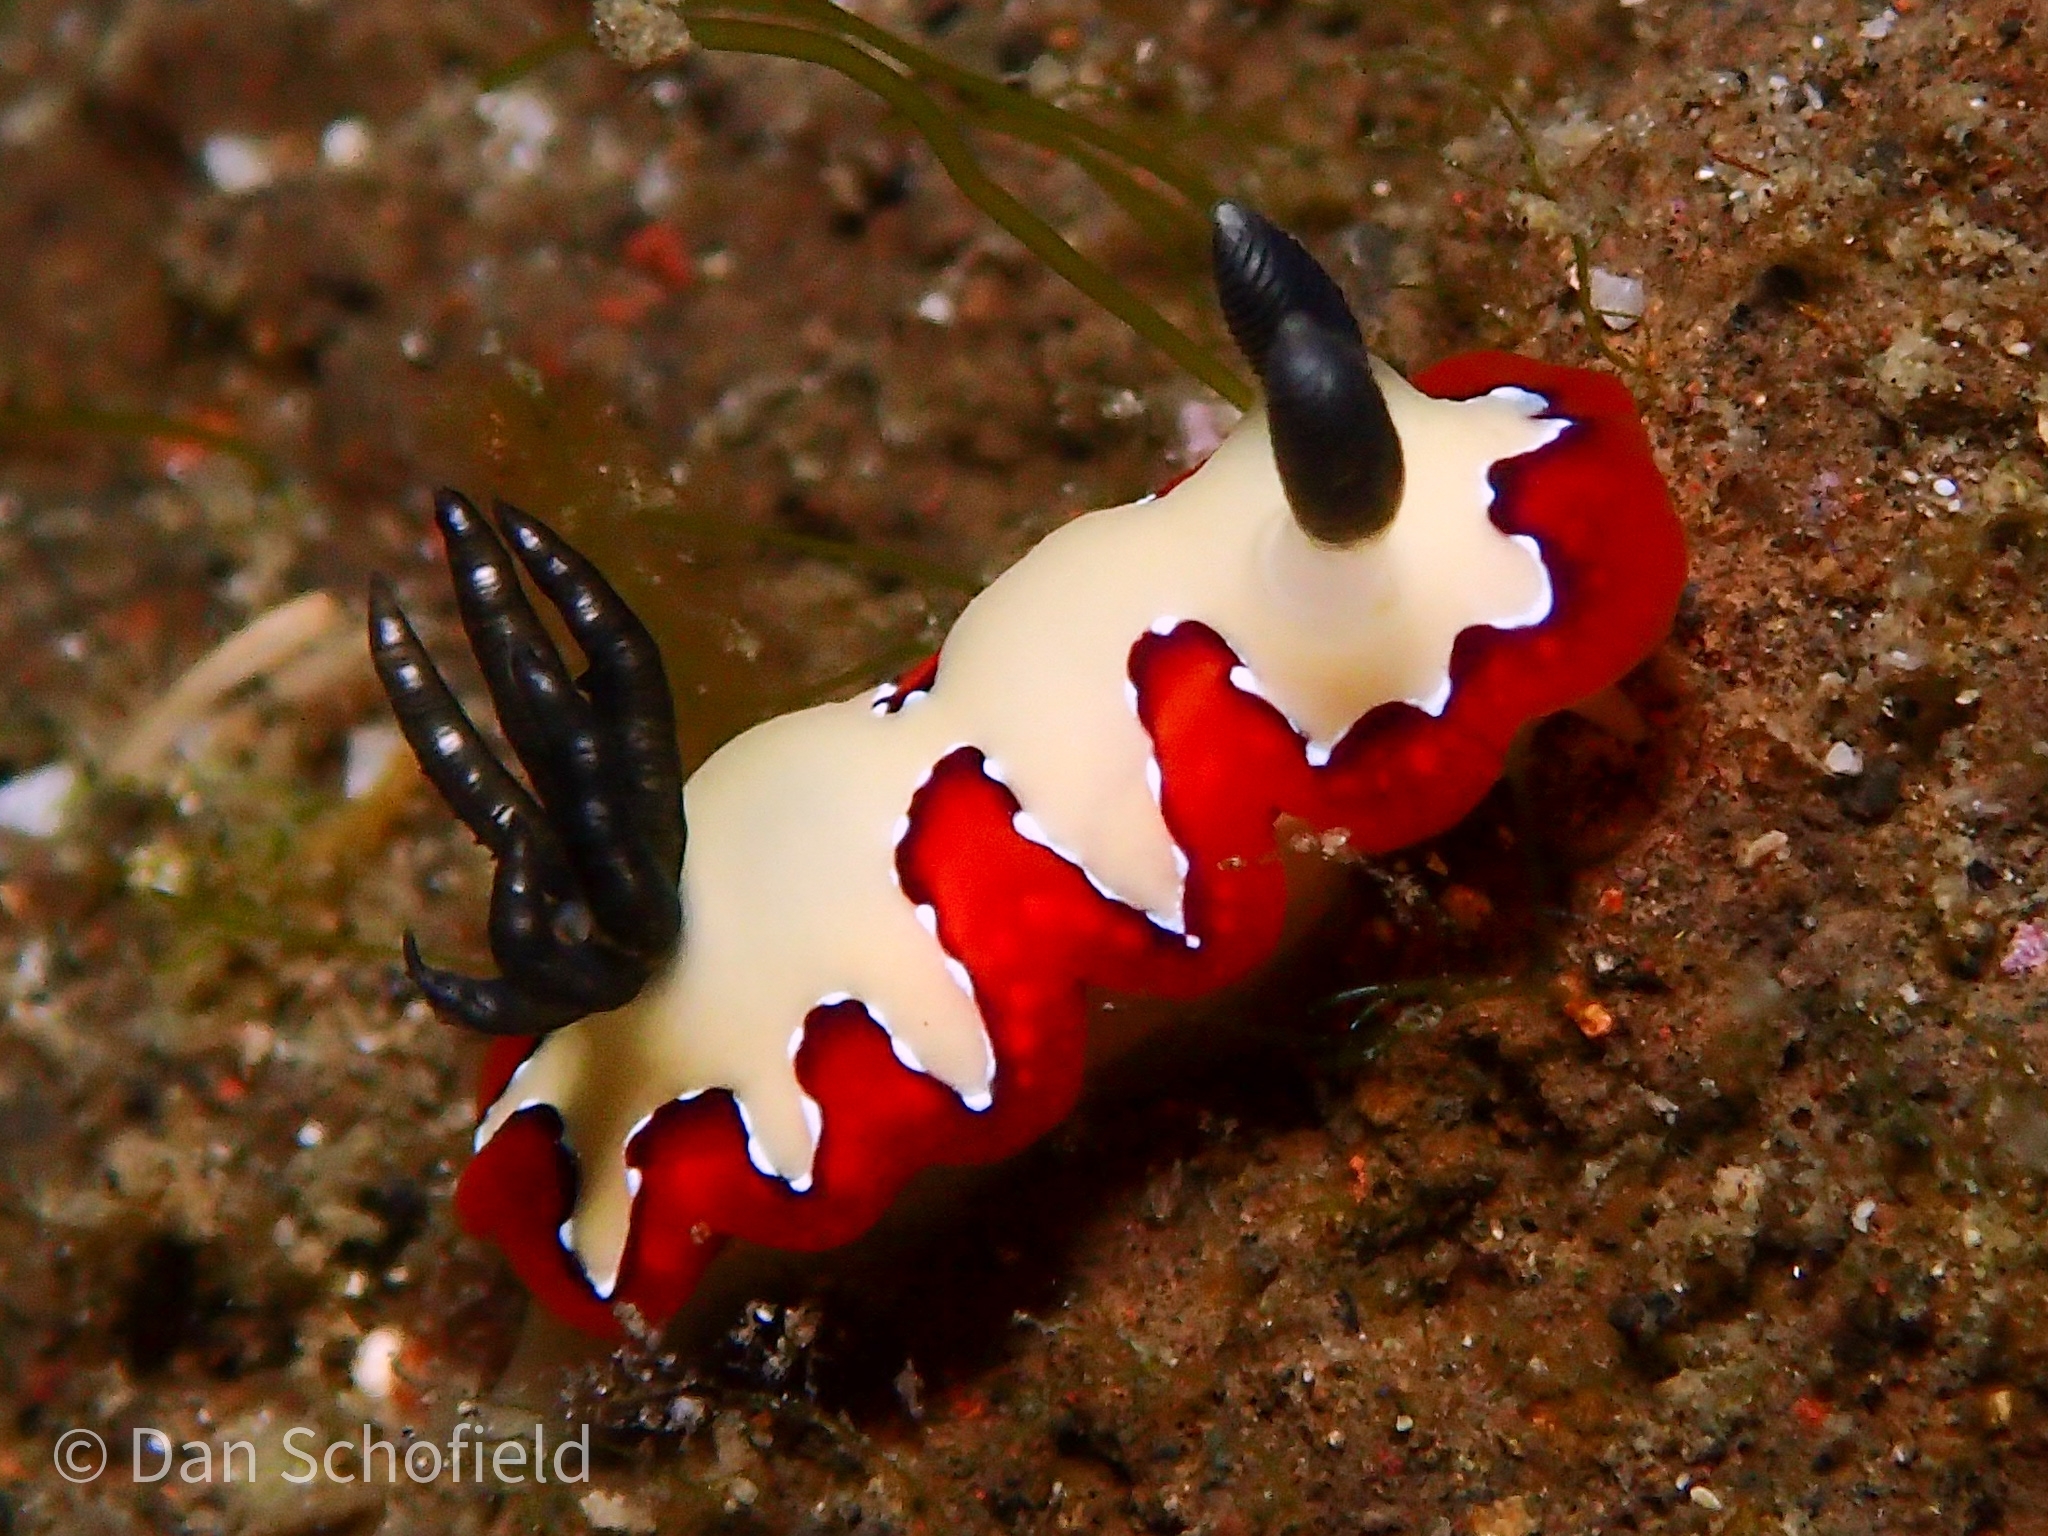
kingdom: Animalia
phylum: Mollusca
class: Gastropoda
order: Nudibranchia
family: Chromodorididae
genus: Goniobranchus
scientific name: Goniobranchus fidelis
